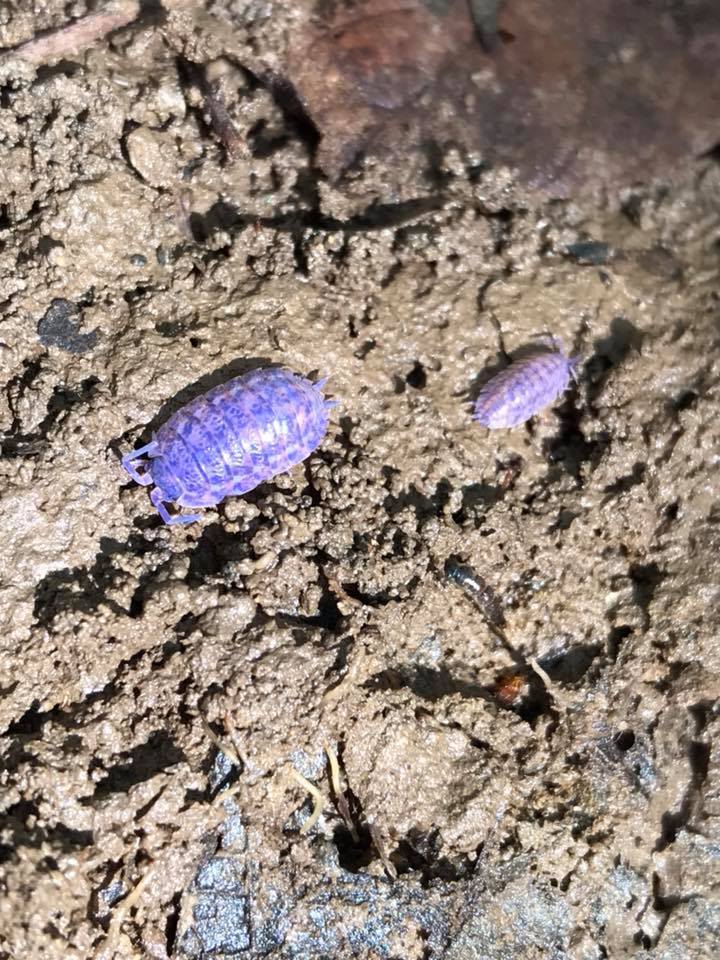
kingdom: Animalia
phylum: Arthropoda
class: Malacostraca
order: Isopoda
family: Trachelipodidae
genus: Trachelipus
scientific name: Trachelipus rathkii
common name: Isopod
